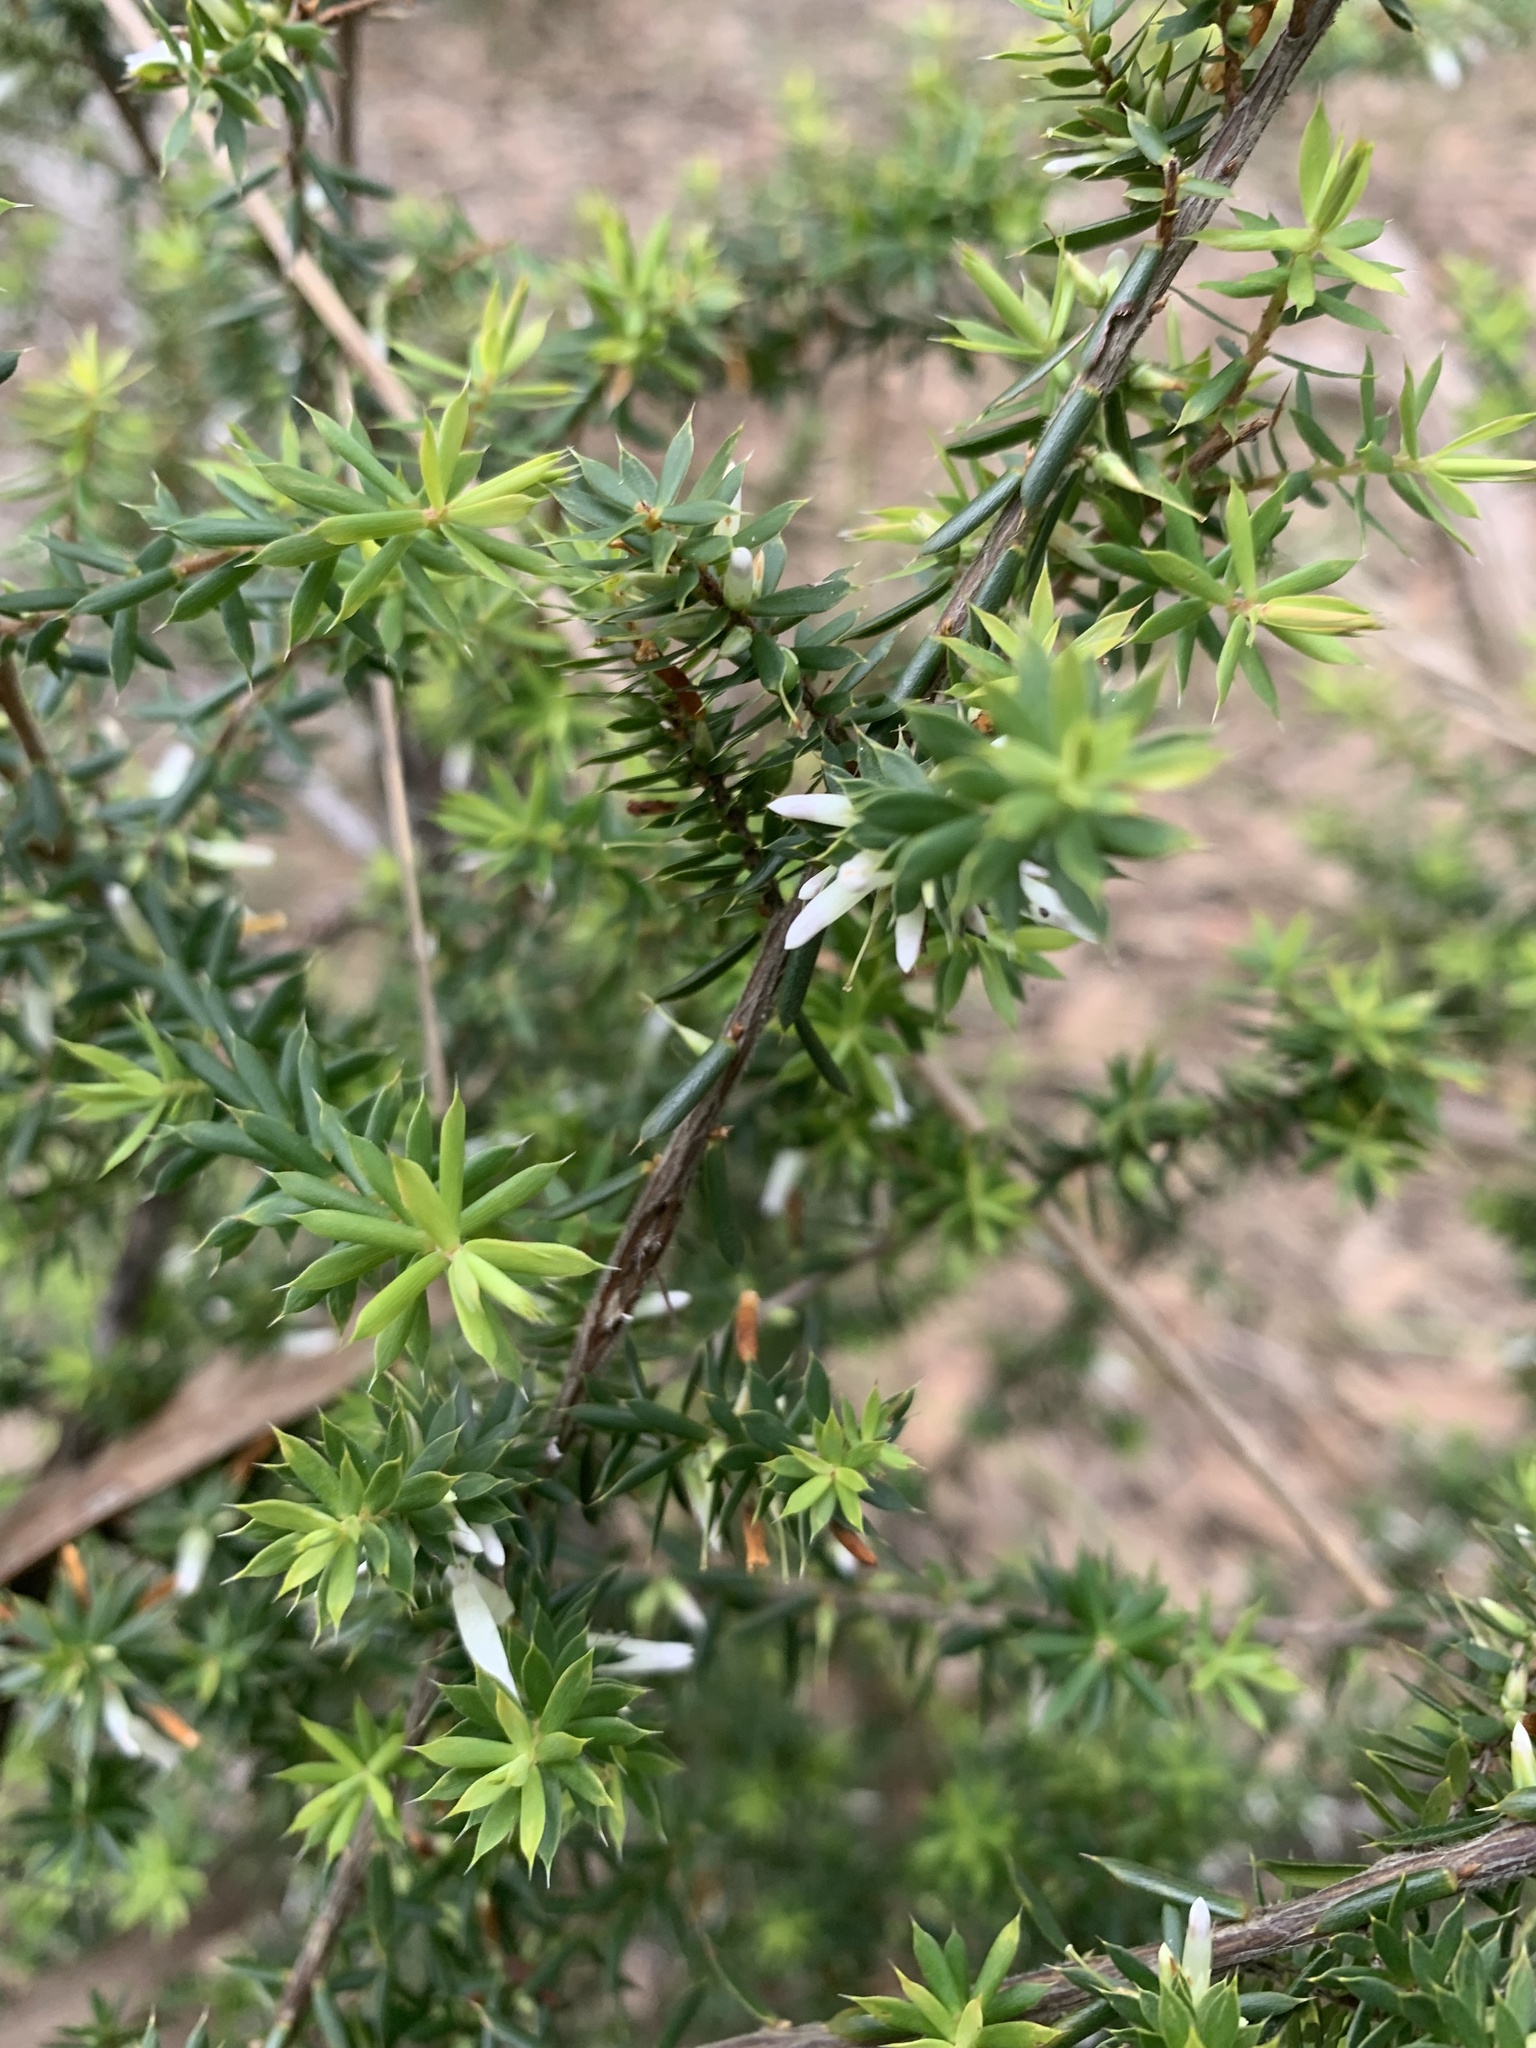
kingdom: Plantae
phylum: Tracheophyta
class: Magnoliopsida
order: Ericales
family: Ericaceae
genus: Styphelia
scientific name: Styphelia sieberi
